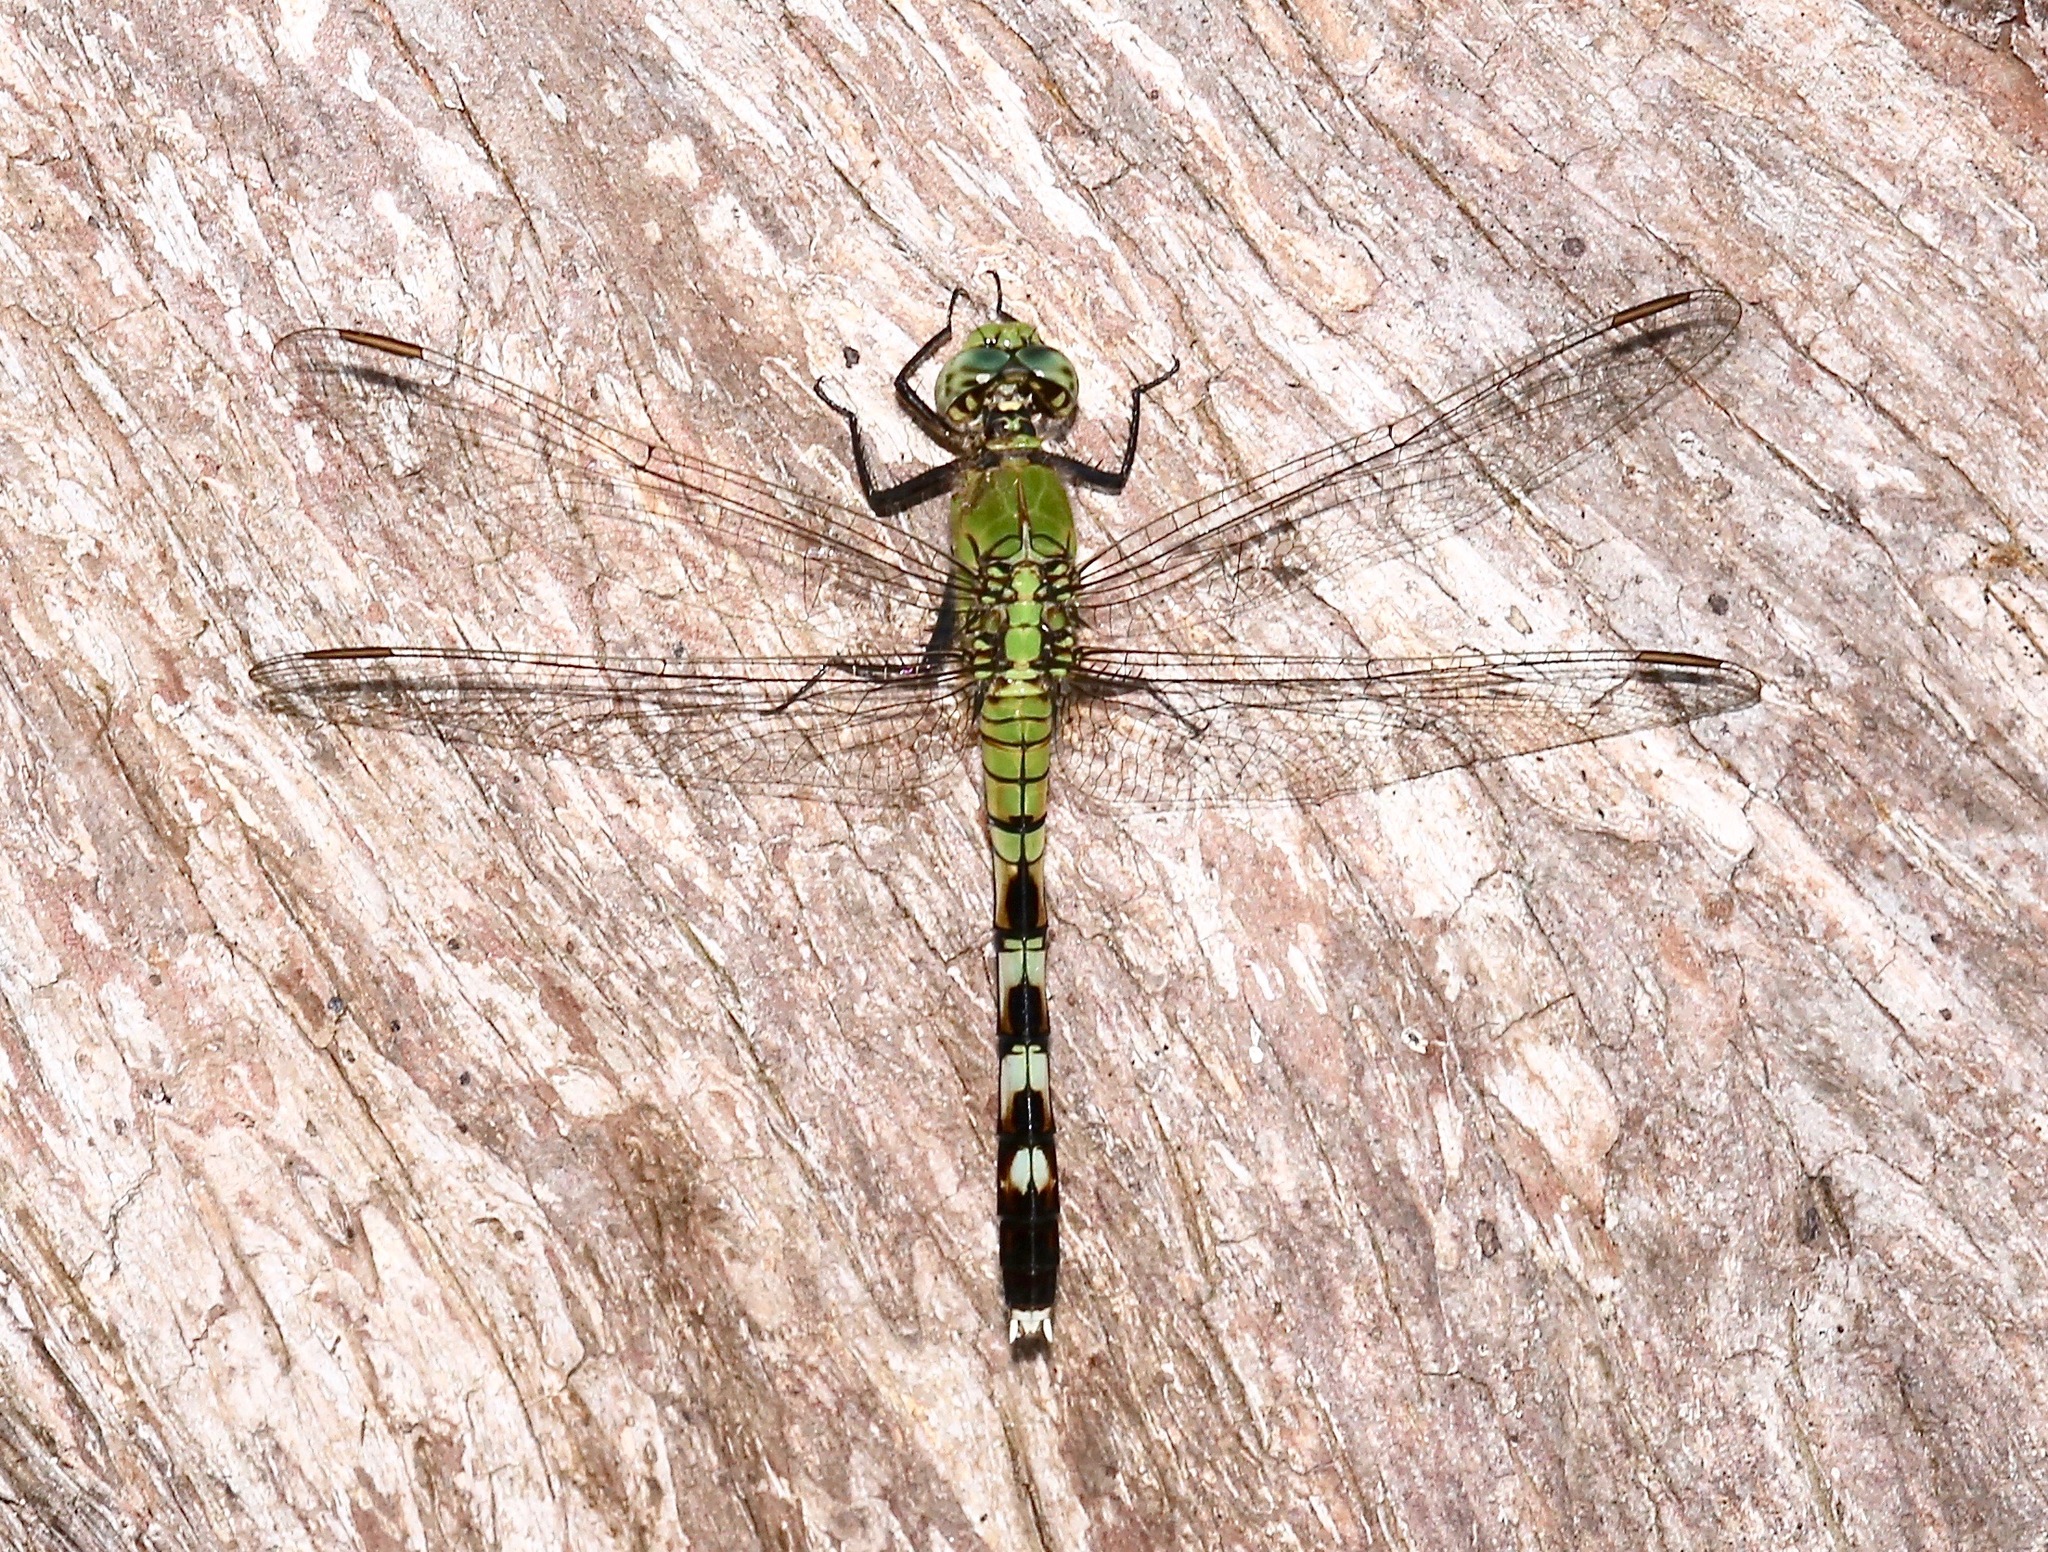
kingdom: Animalia
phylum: Arthropoda
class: Insecta
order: Odonata
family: Libellulidae
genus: Erythemis
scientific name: Erythemis simplicicollis
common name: Eastern pondhawk
